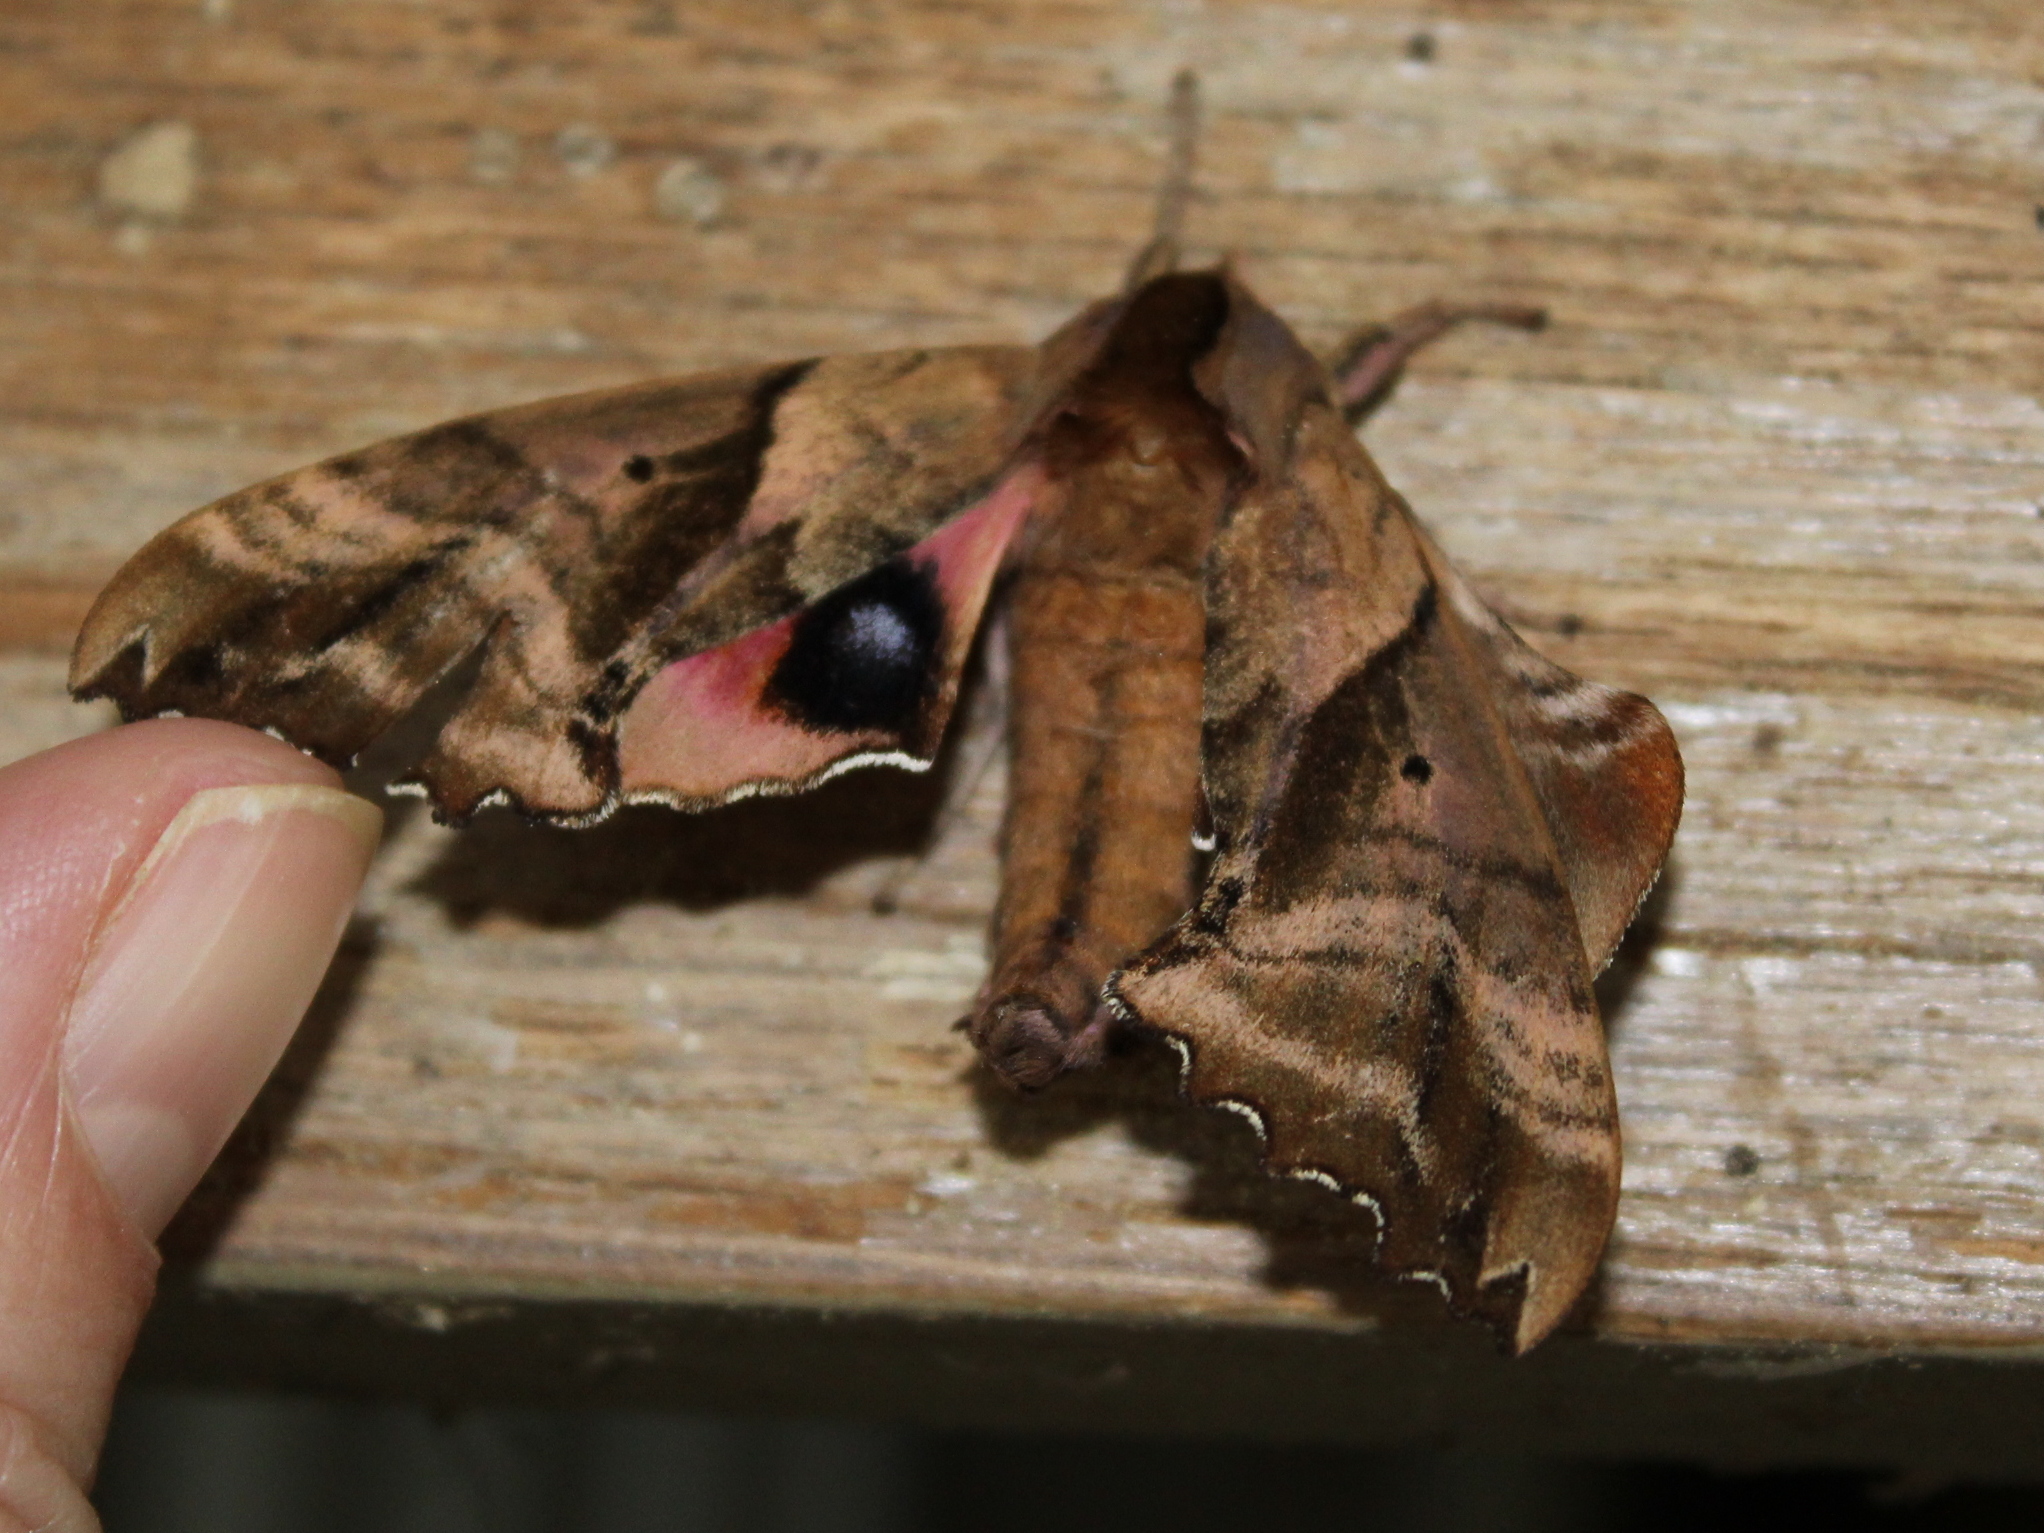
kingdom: Animalia
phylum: Arthropoda
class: Insecta
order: Lepidoptera
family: Sphingidae
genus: Paonias
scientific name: Paonias excaecata
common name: Blind-eyed sphinx
